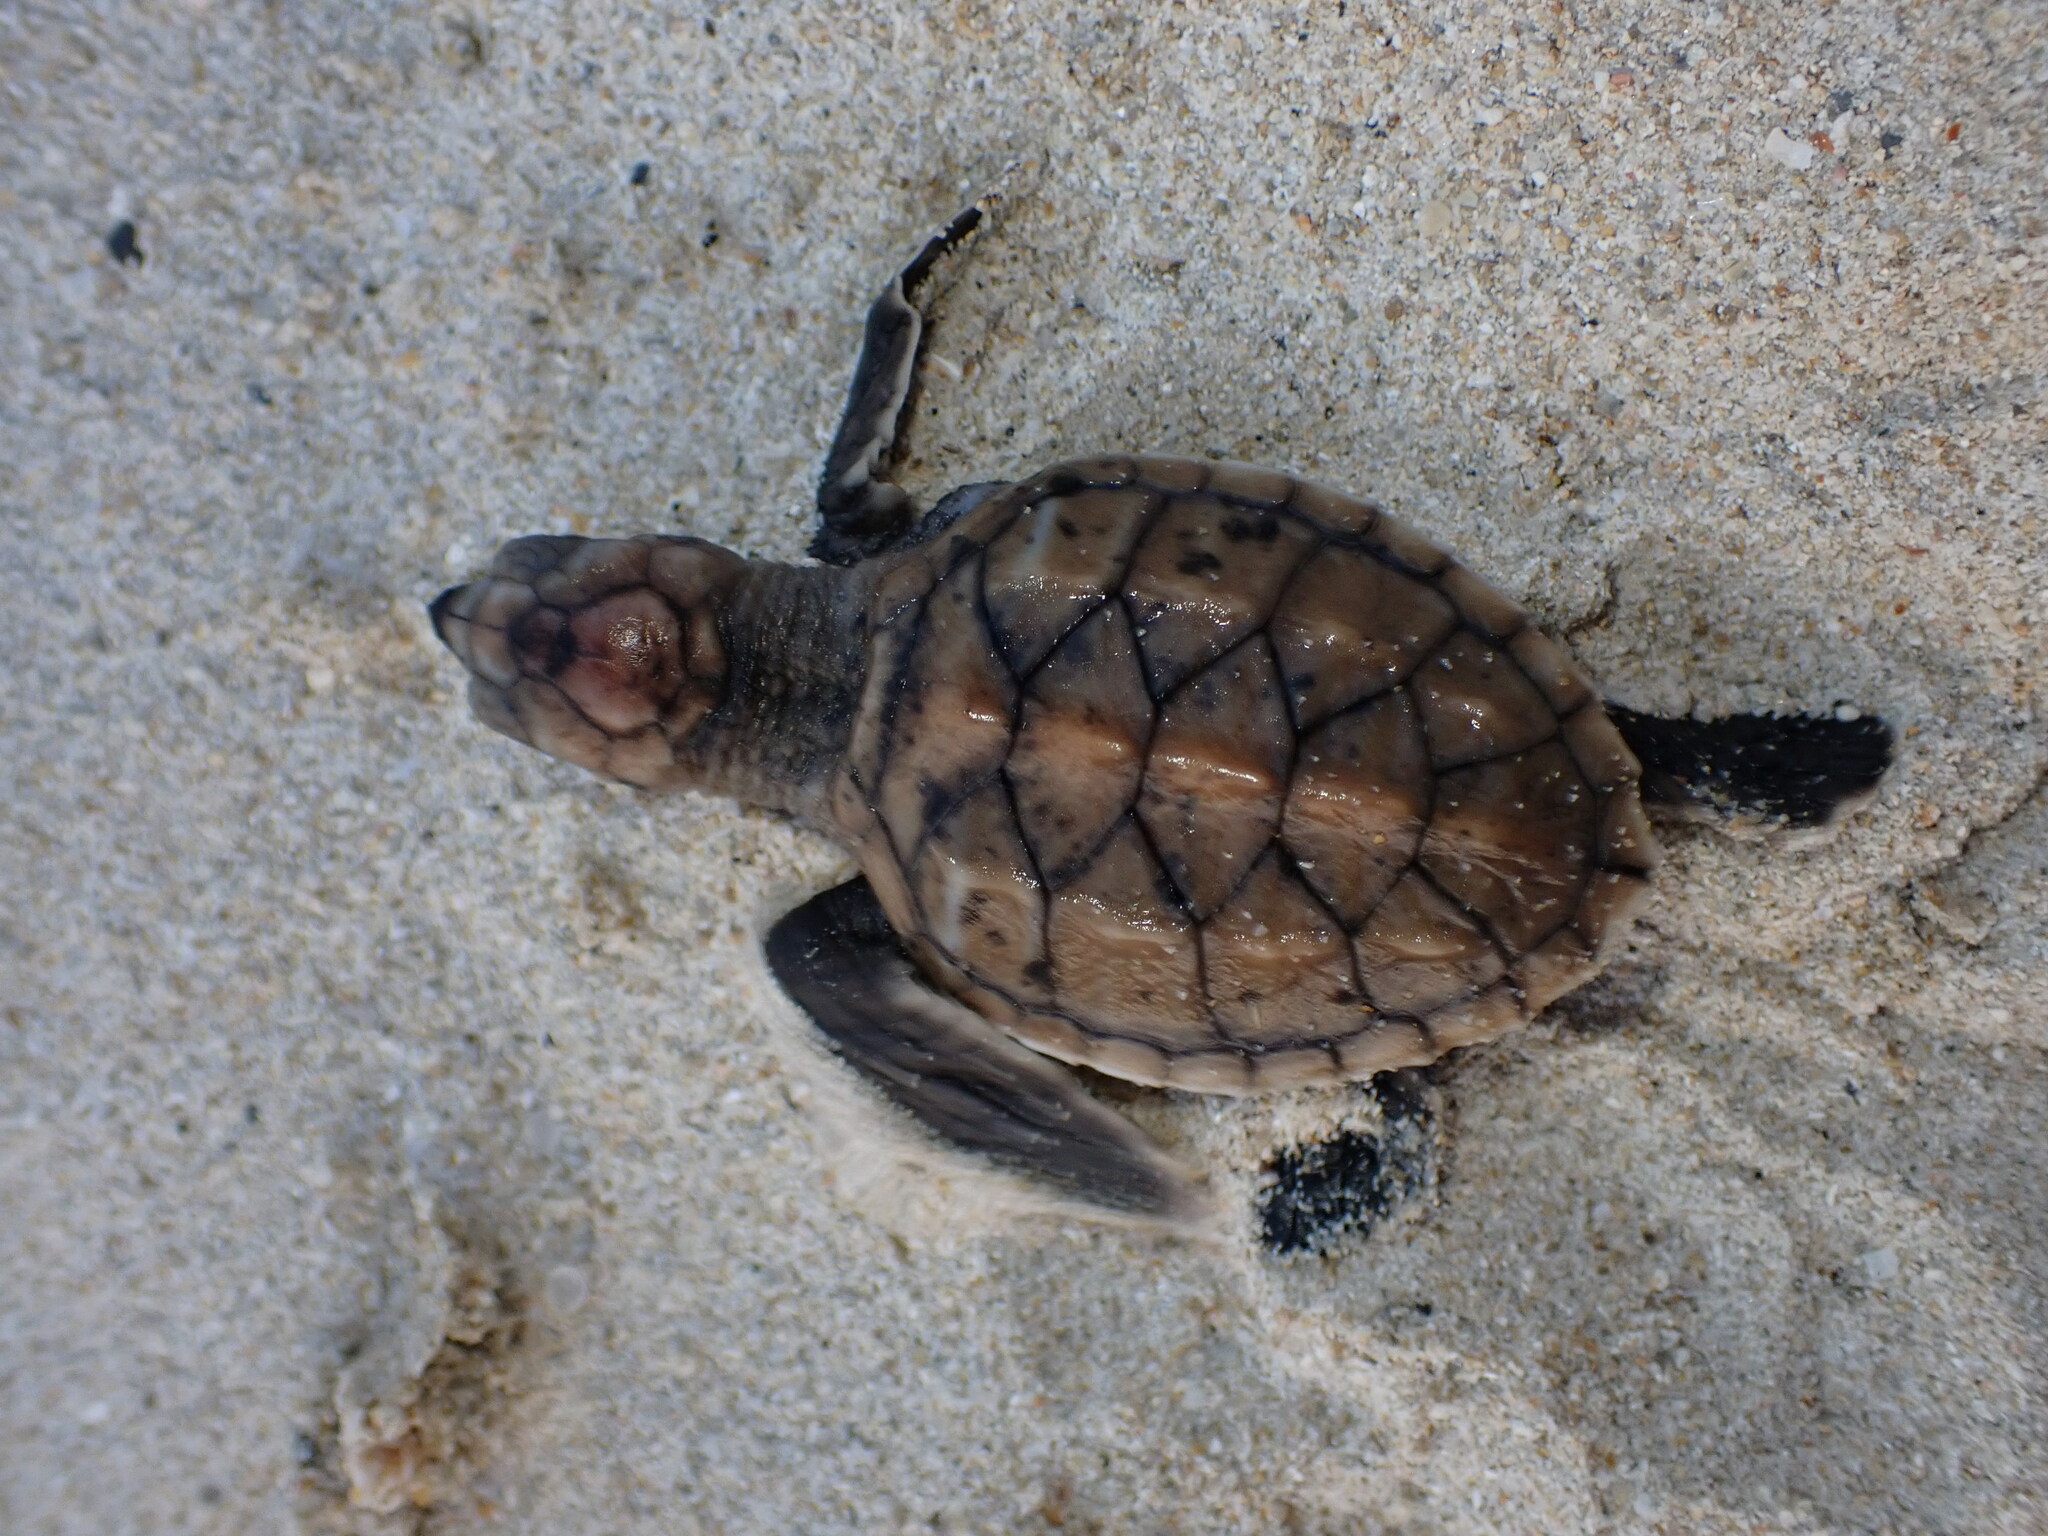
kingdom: Animalia
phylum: Chordata
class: Testudines
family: Cheloniidae
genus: Eretmochelys
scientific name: Eretmochelys imbricata
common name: Hawksbill turtle
